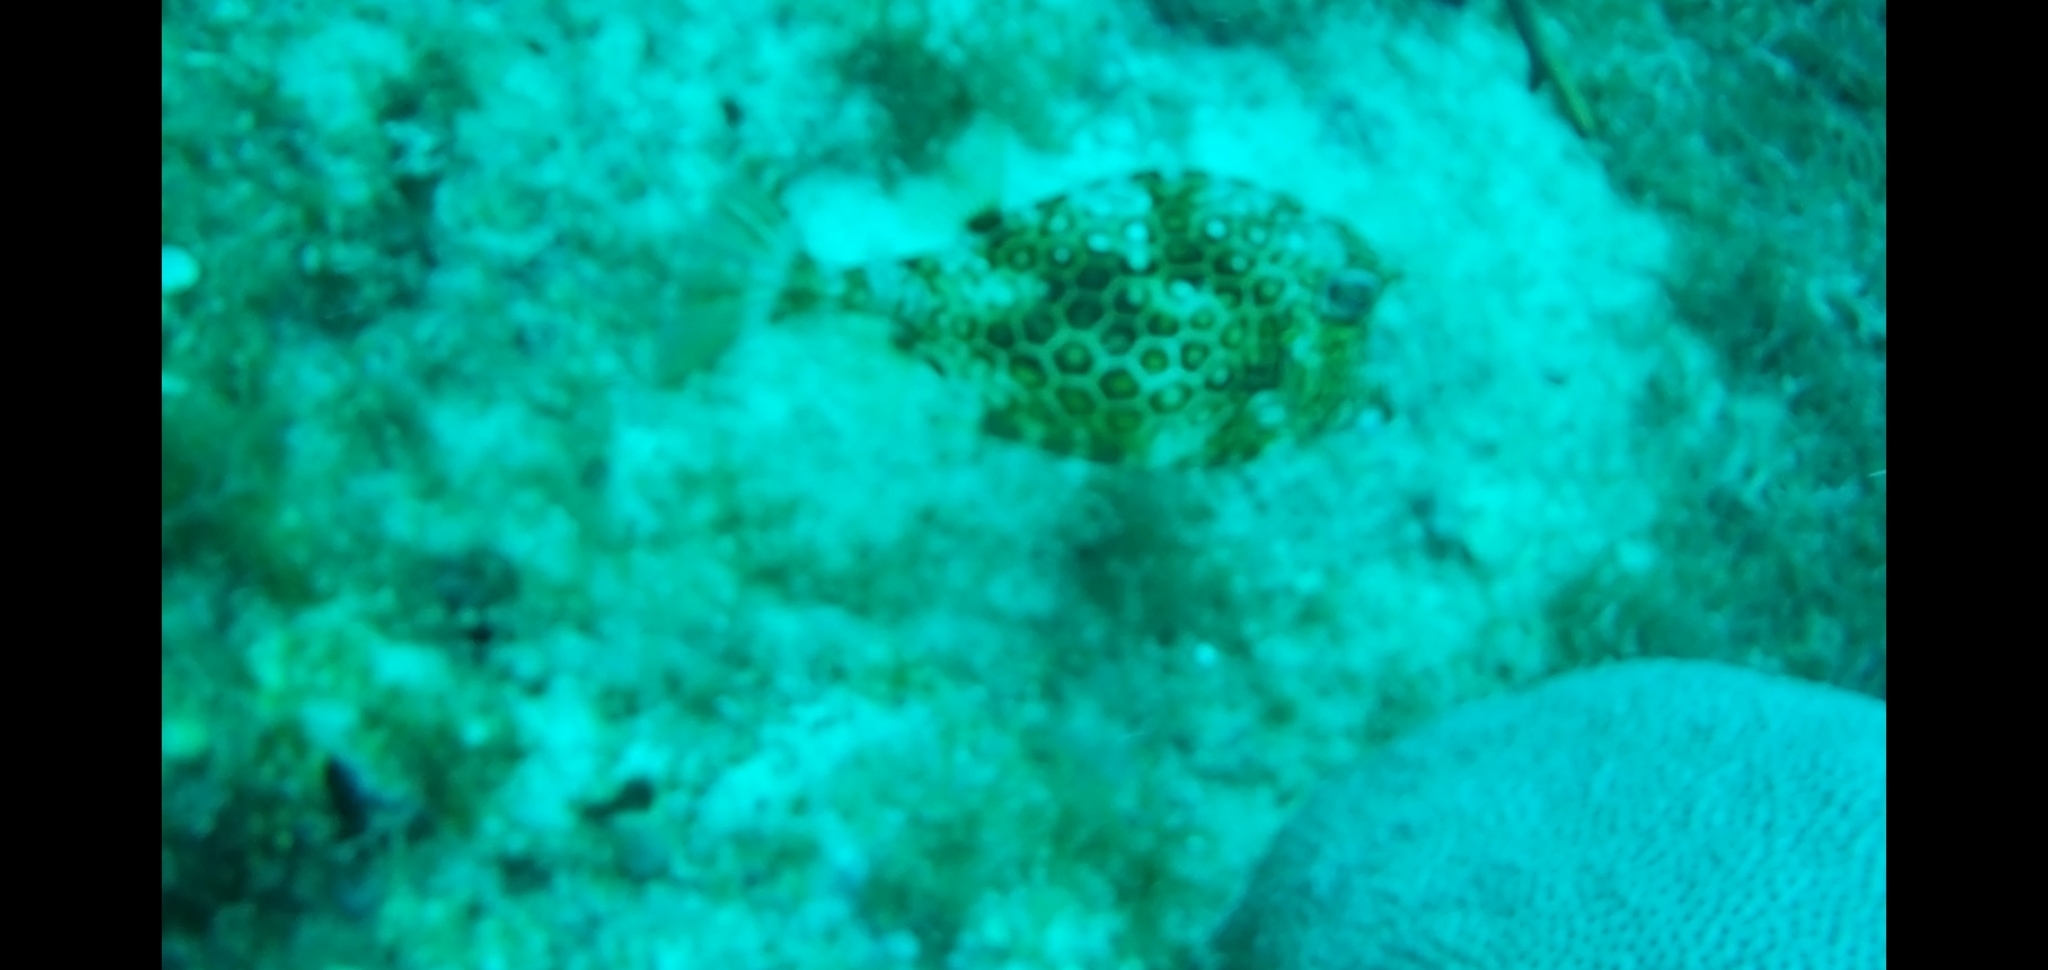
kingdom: Animalia
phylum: Chordata
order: Tetraodontiformes
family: Ostraciidae
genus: Acanthostracion
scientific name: Acanthostracion polygonius
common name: Honeycomb cowfish
